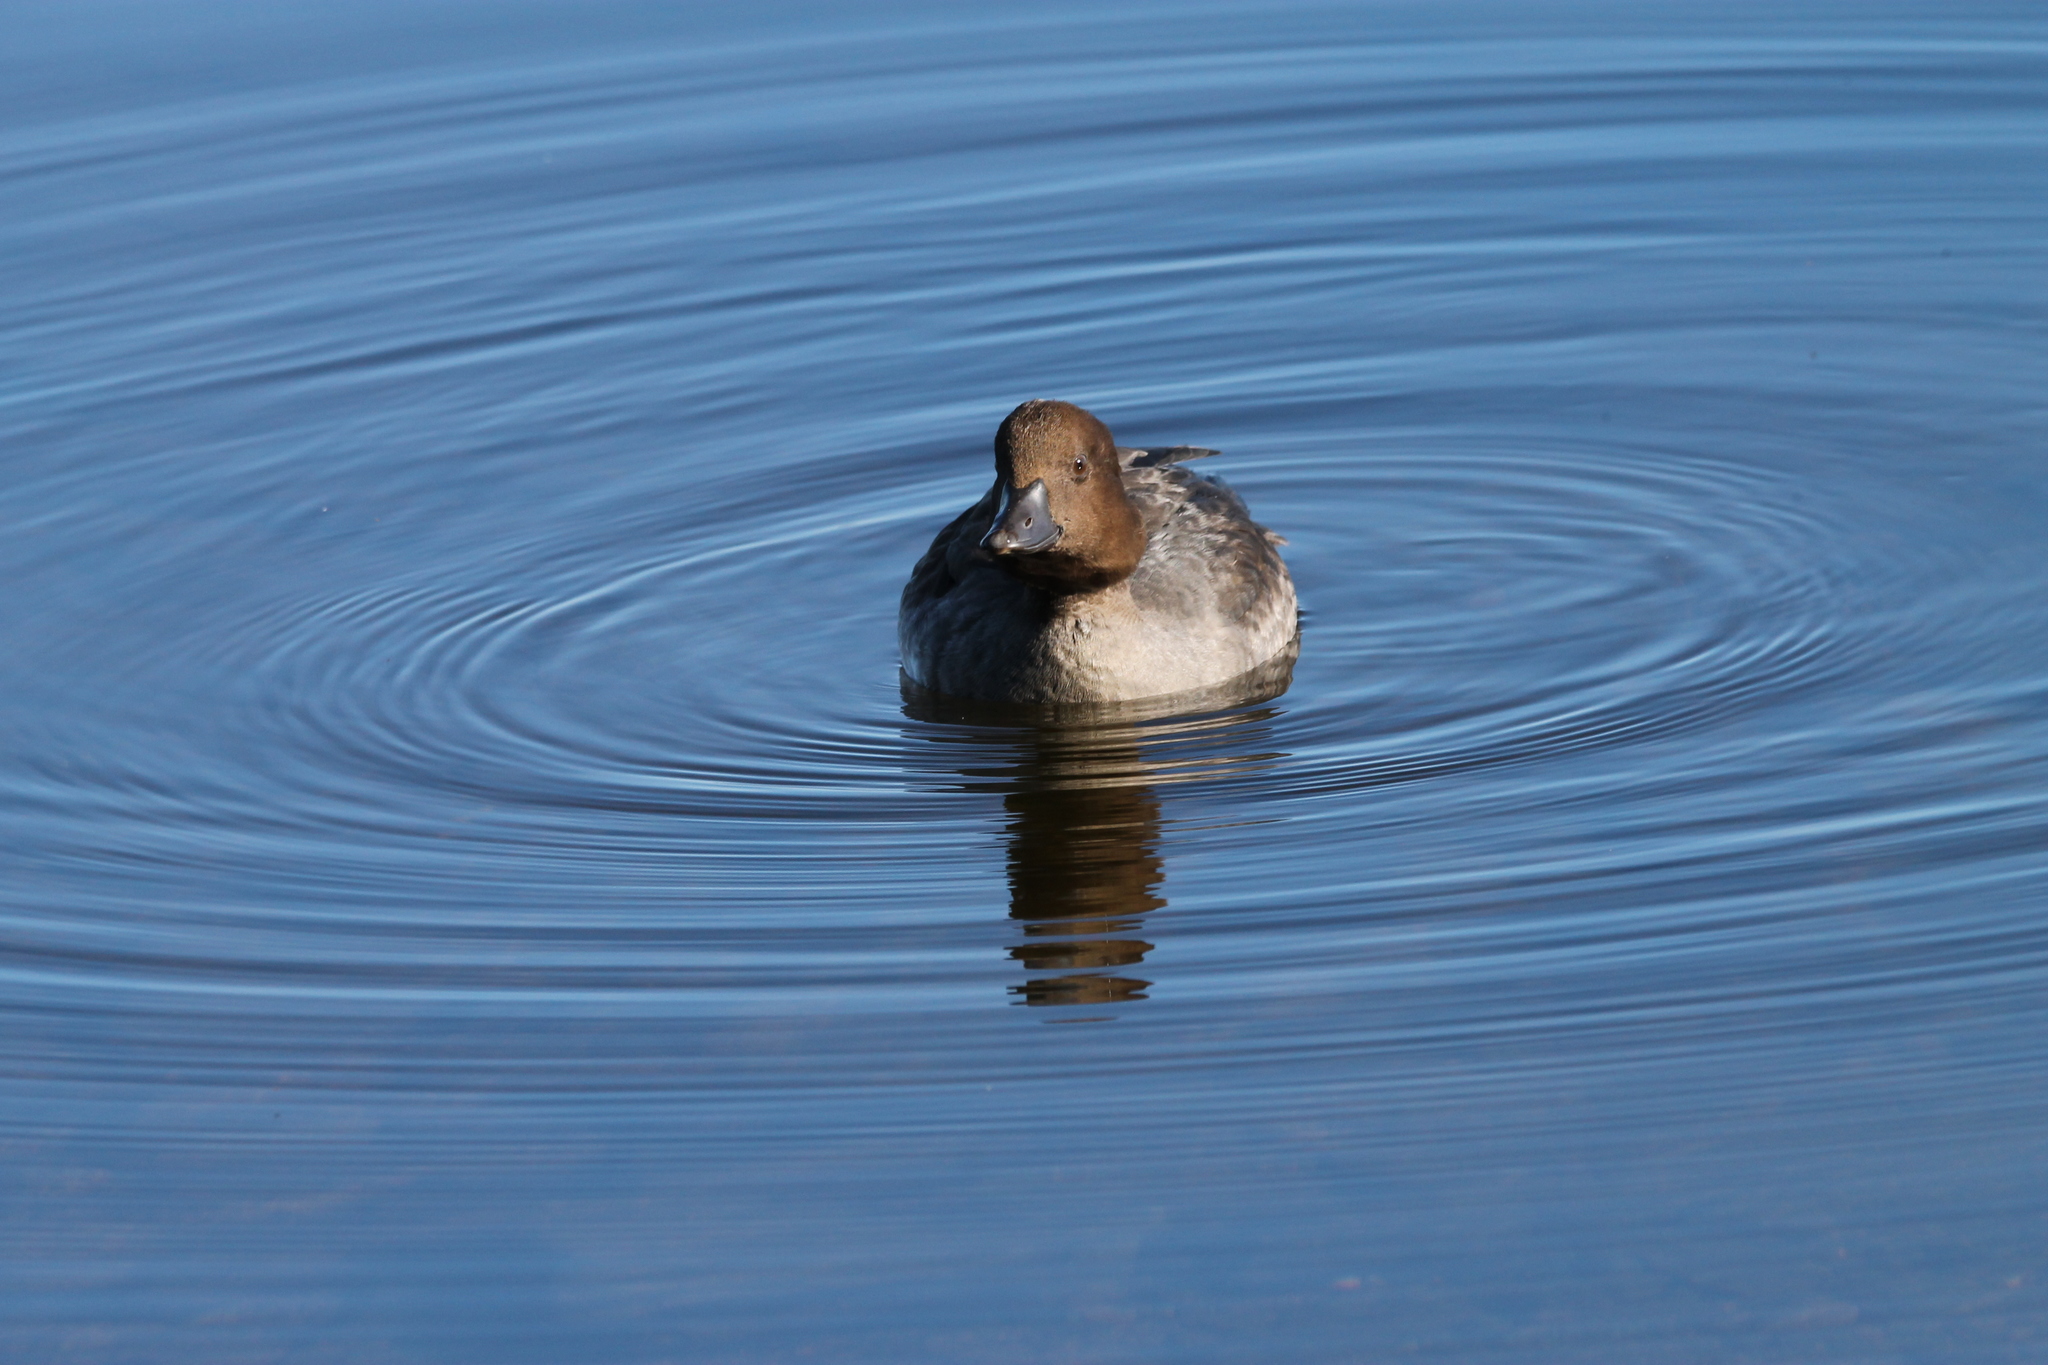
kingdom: Animalia
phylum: Chordata
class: Aves
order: Anseriformes
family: Anatidae
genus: Aythya
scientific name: Aythya americana
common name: Redhead
